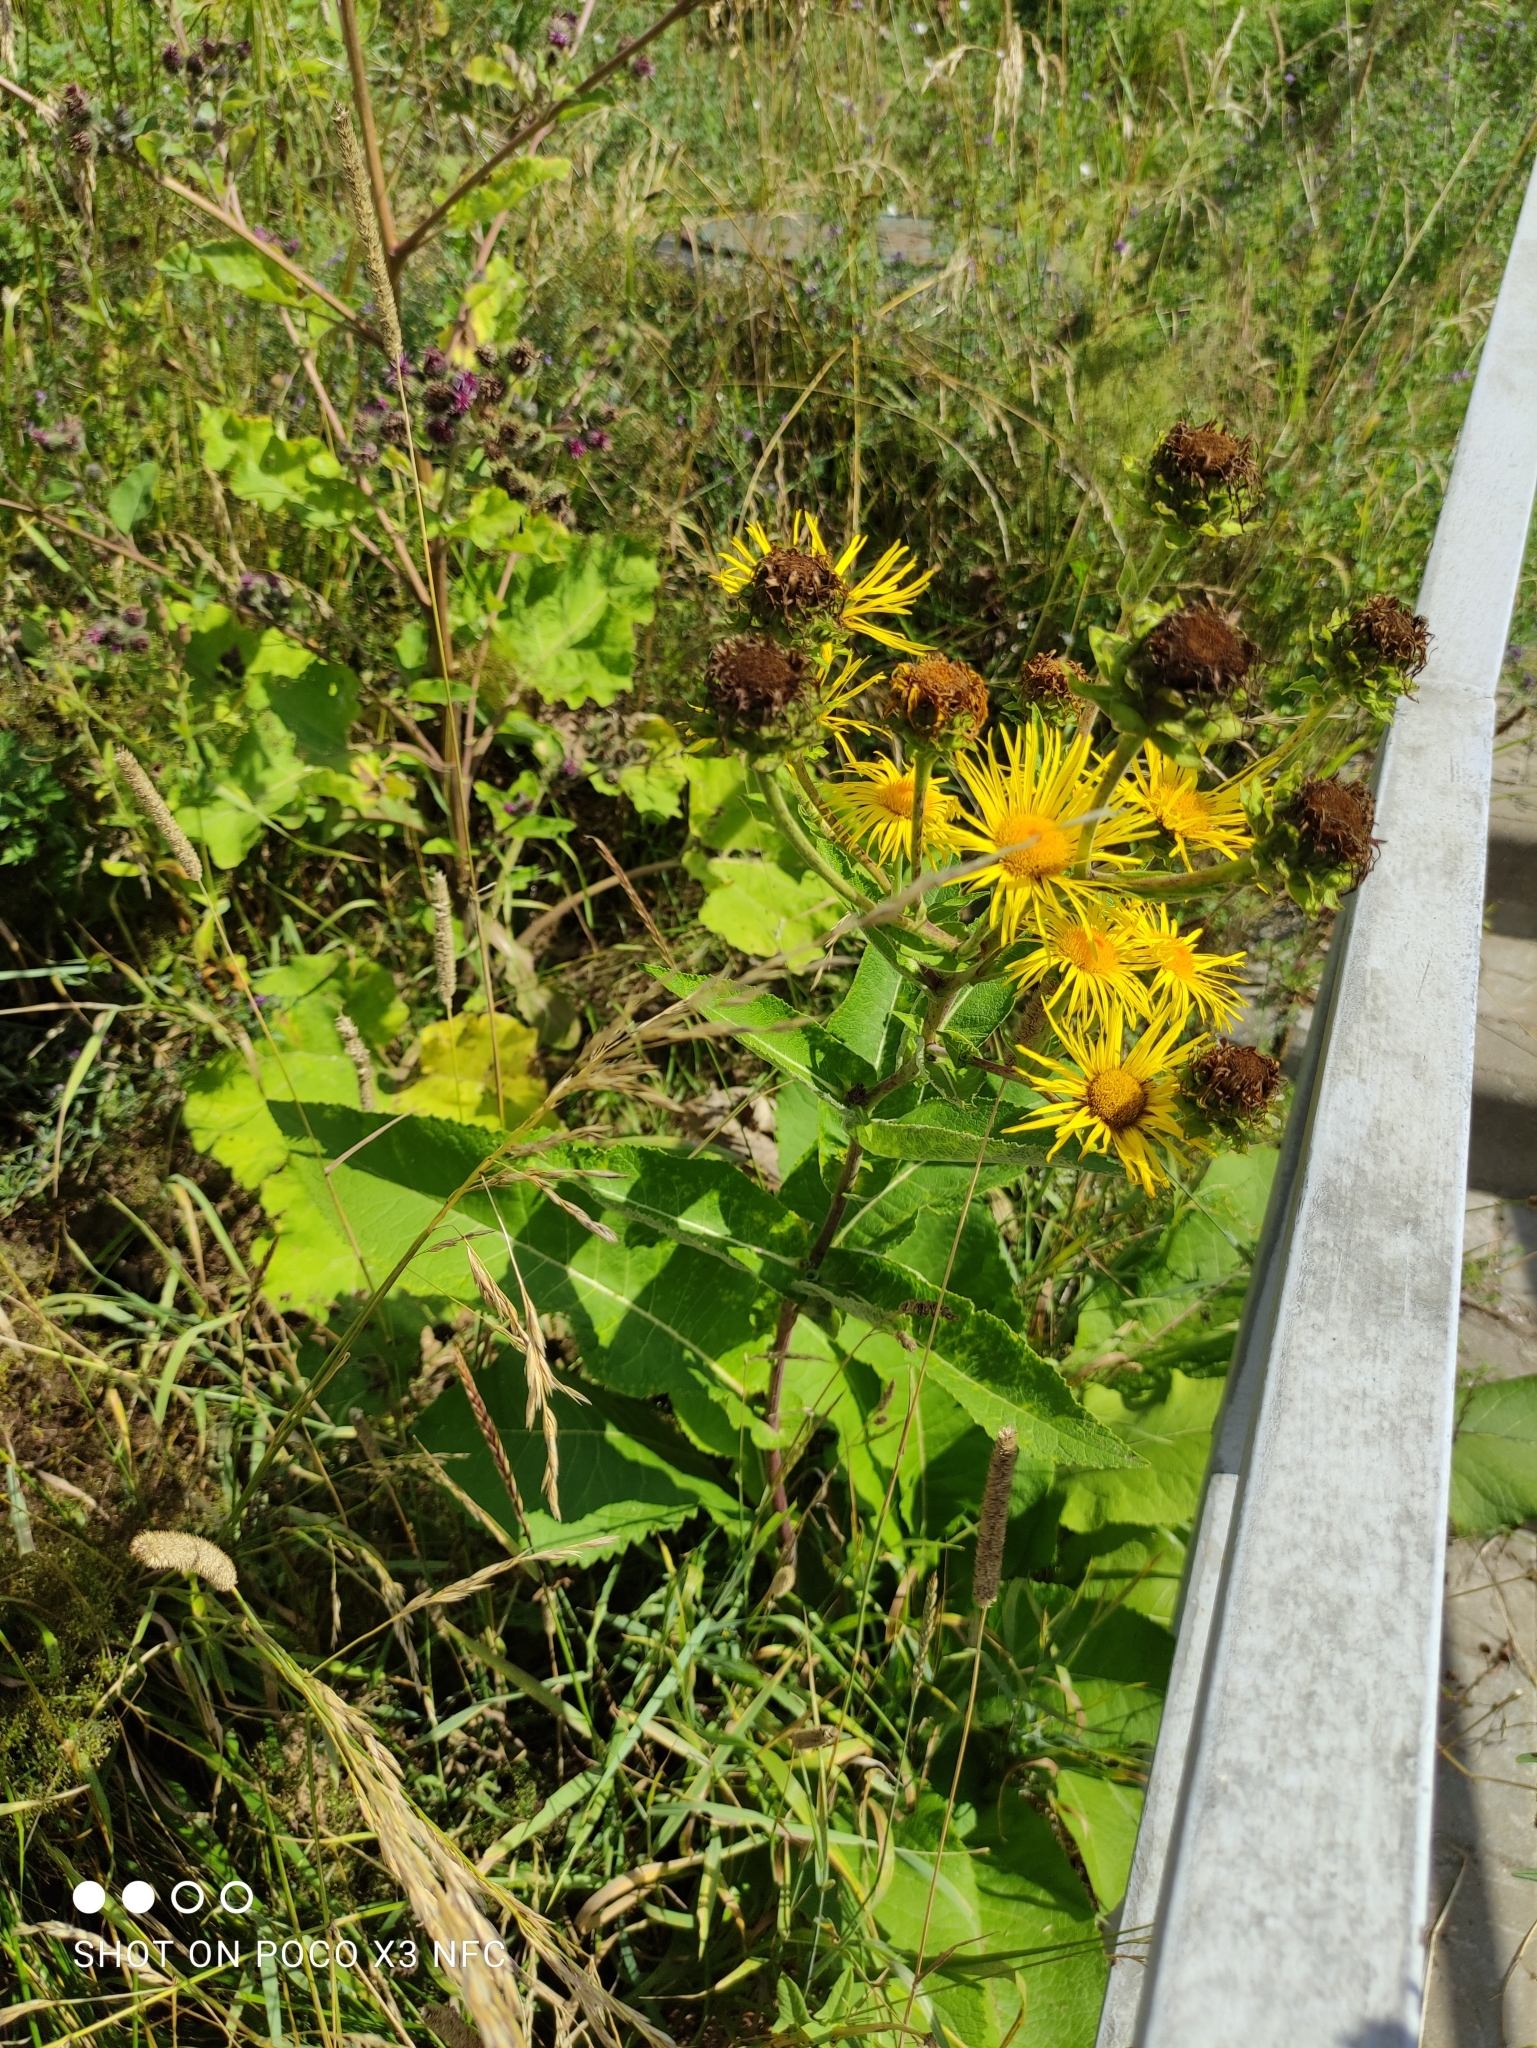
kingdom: Plantae
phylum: Tracheophyta
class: Magnoliopsida
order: Asterales
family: Asteraceae
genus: Inula
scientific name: Inula helenium
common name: Elecampane
